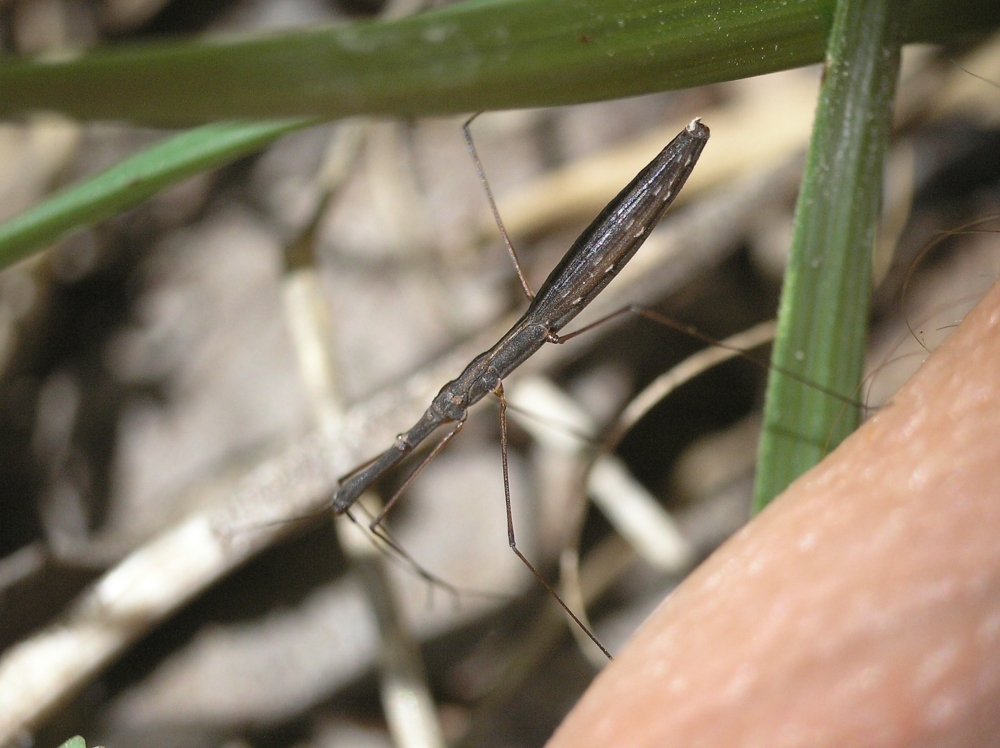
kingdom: Animalia
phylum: Arthropoda
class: Insecta
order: Hemiptera
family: Hydrometridae
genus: Hydrometra
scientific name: Hydrometra stagnorum
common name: Water measurer
